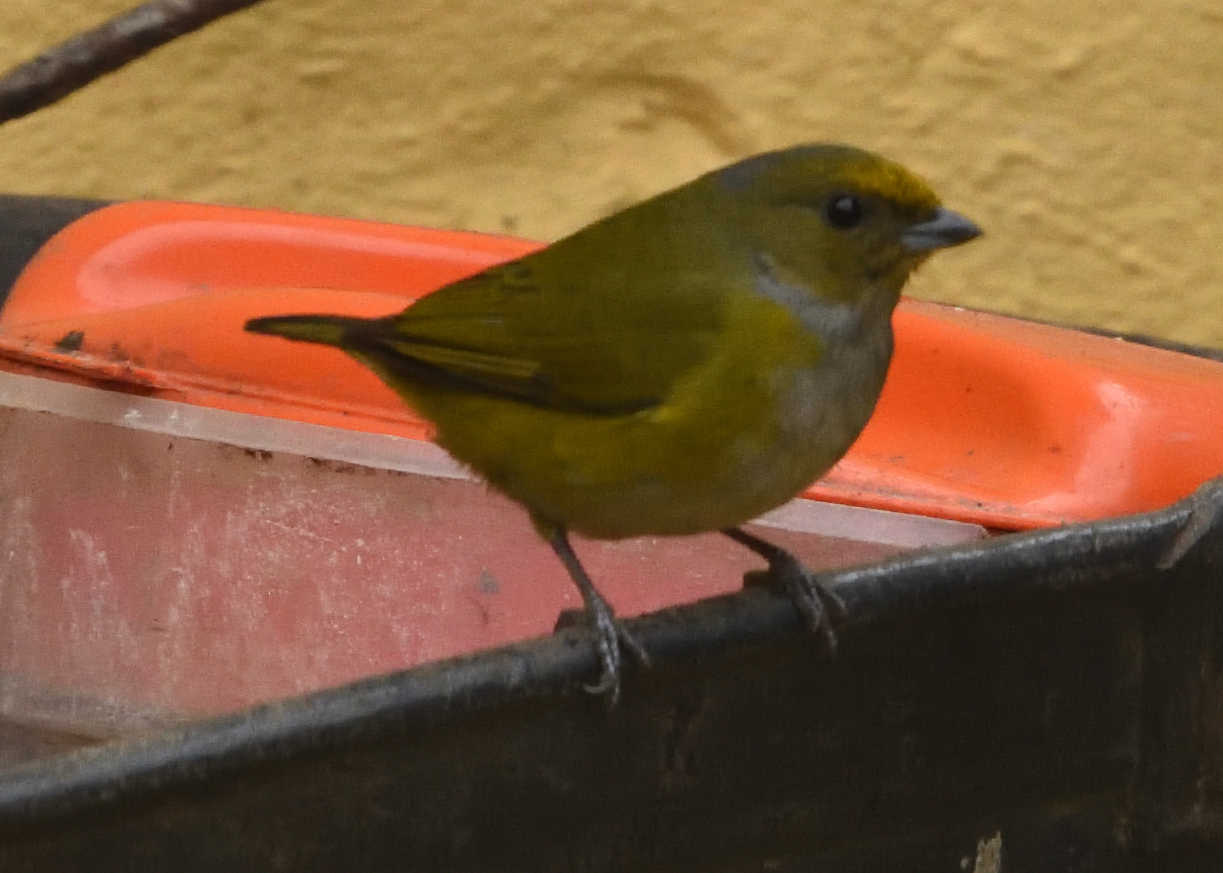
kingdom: Animalia
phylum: Chordata
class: Aves
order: Passeriformes
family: Fringillidae
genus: Euphonia
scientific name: Euphonia xanthogaster
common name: Orange-bellied euphonia
